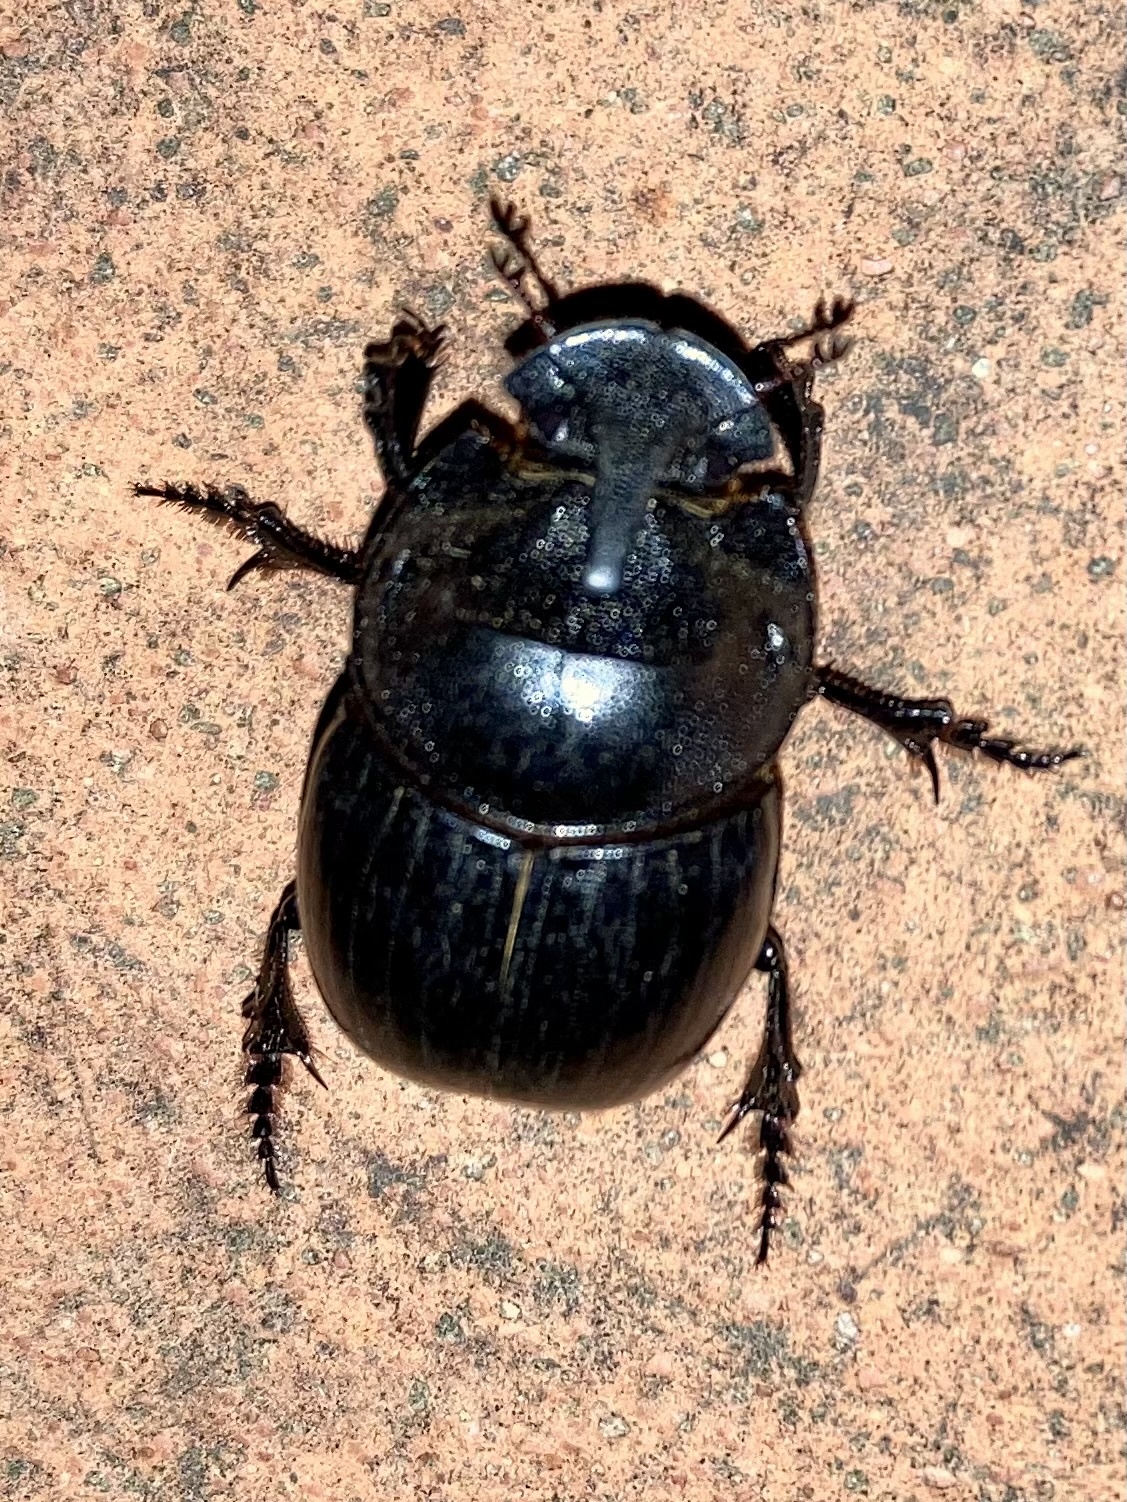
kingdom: Animalia
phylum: Arthropoda
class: Insecta
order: Coleoptera
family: Scarabaeidae
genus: Copris
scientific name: Copris hispanus
